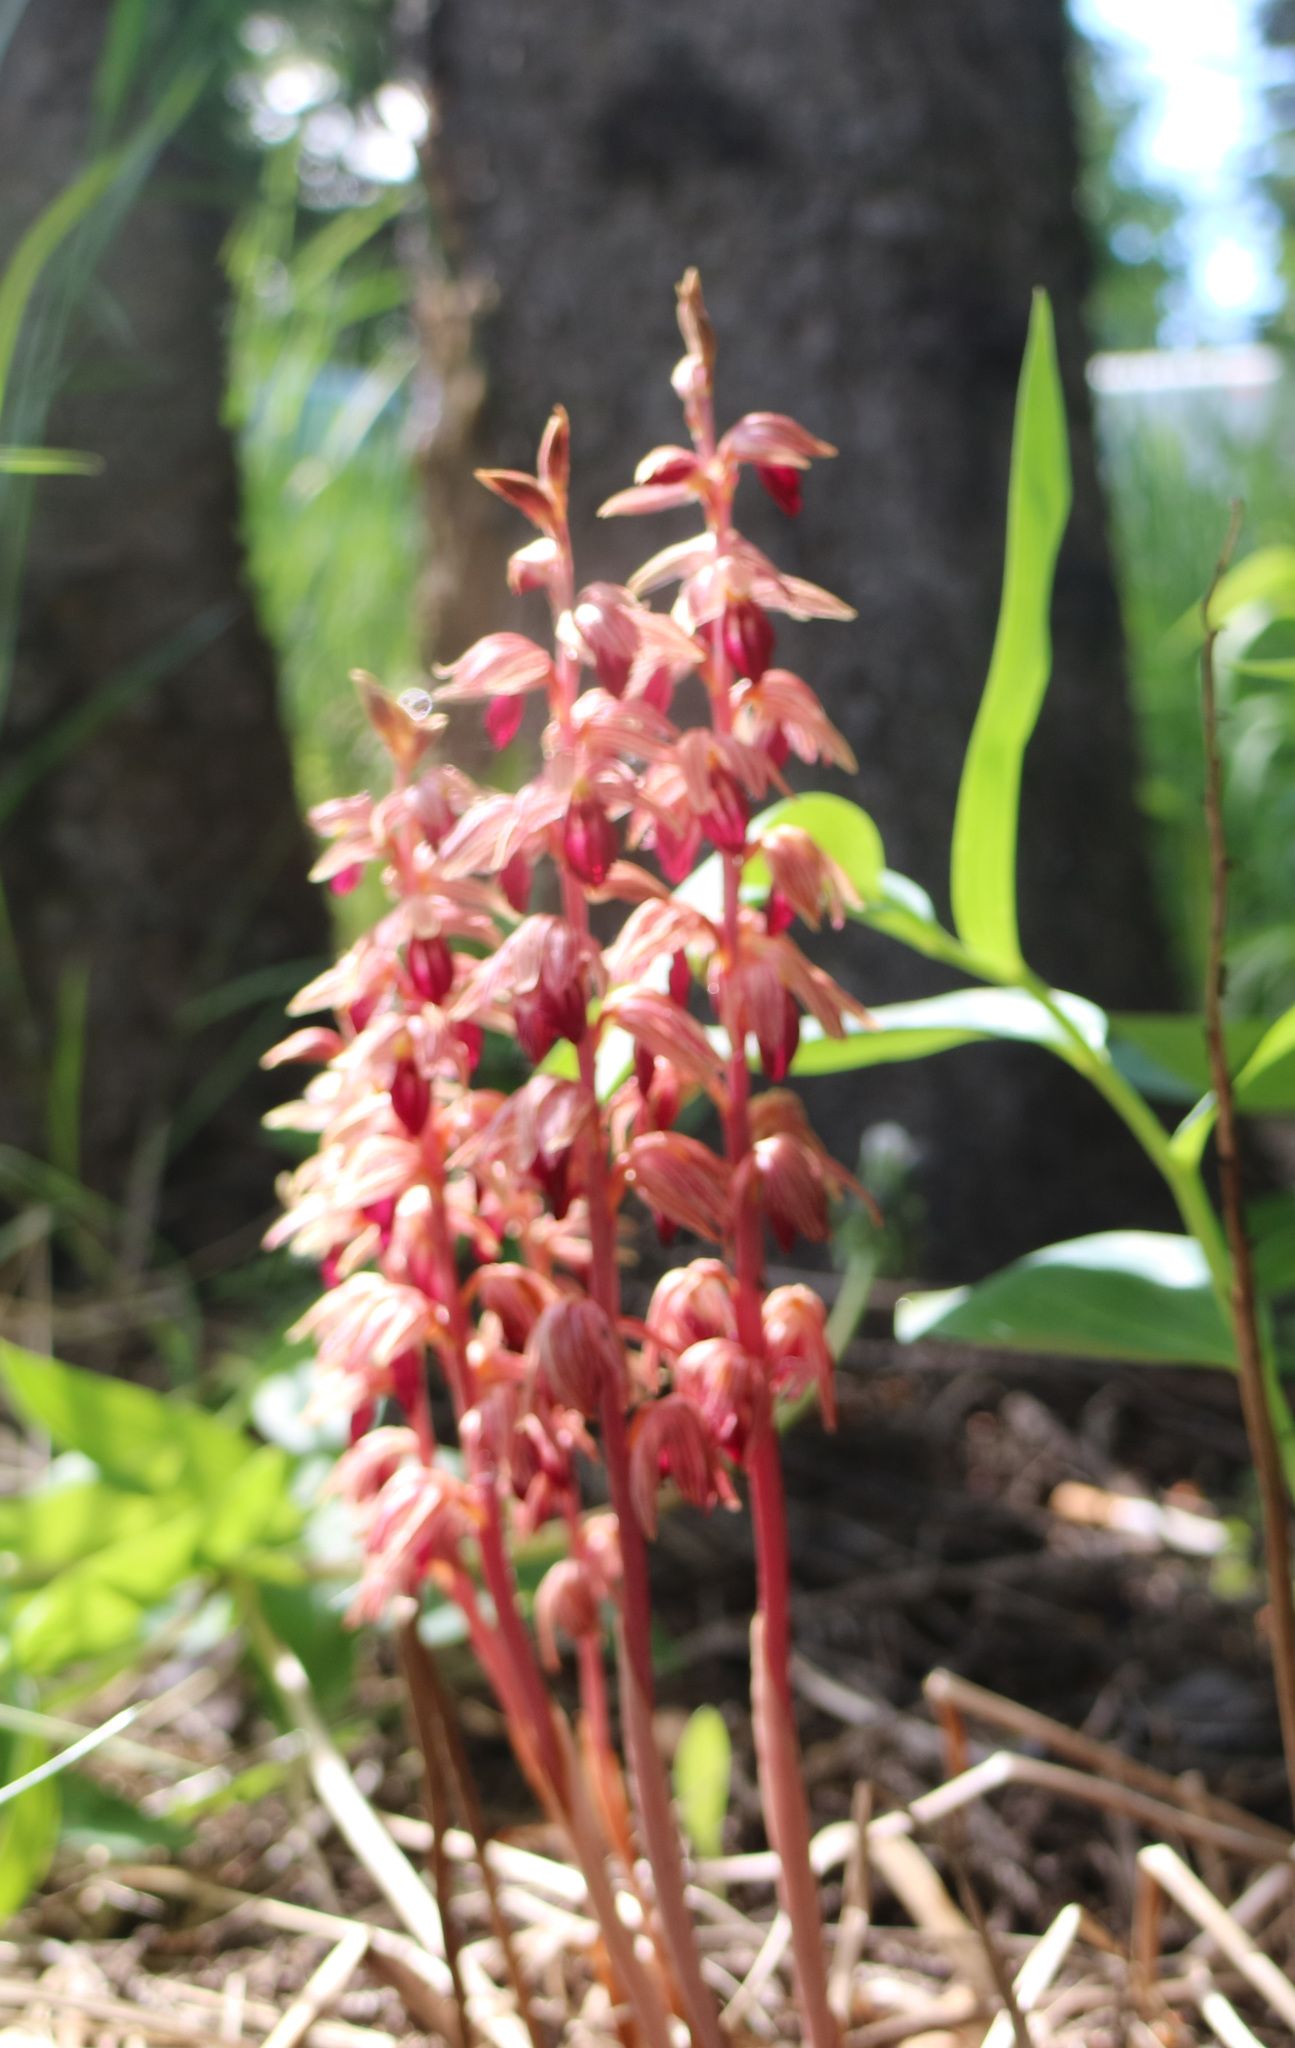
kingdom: Plantae
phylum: Tracheophyta
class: Liliopsida
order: Asparagales
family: Orchidaceae
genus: Corallorhiza
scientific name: Corallorhiza striata
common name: Hooded coralroot
